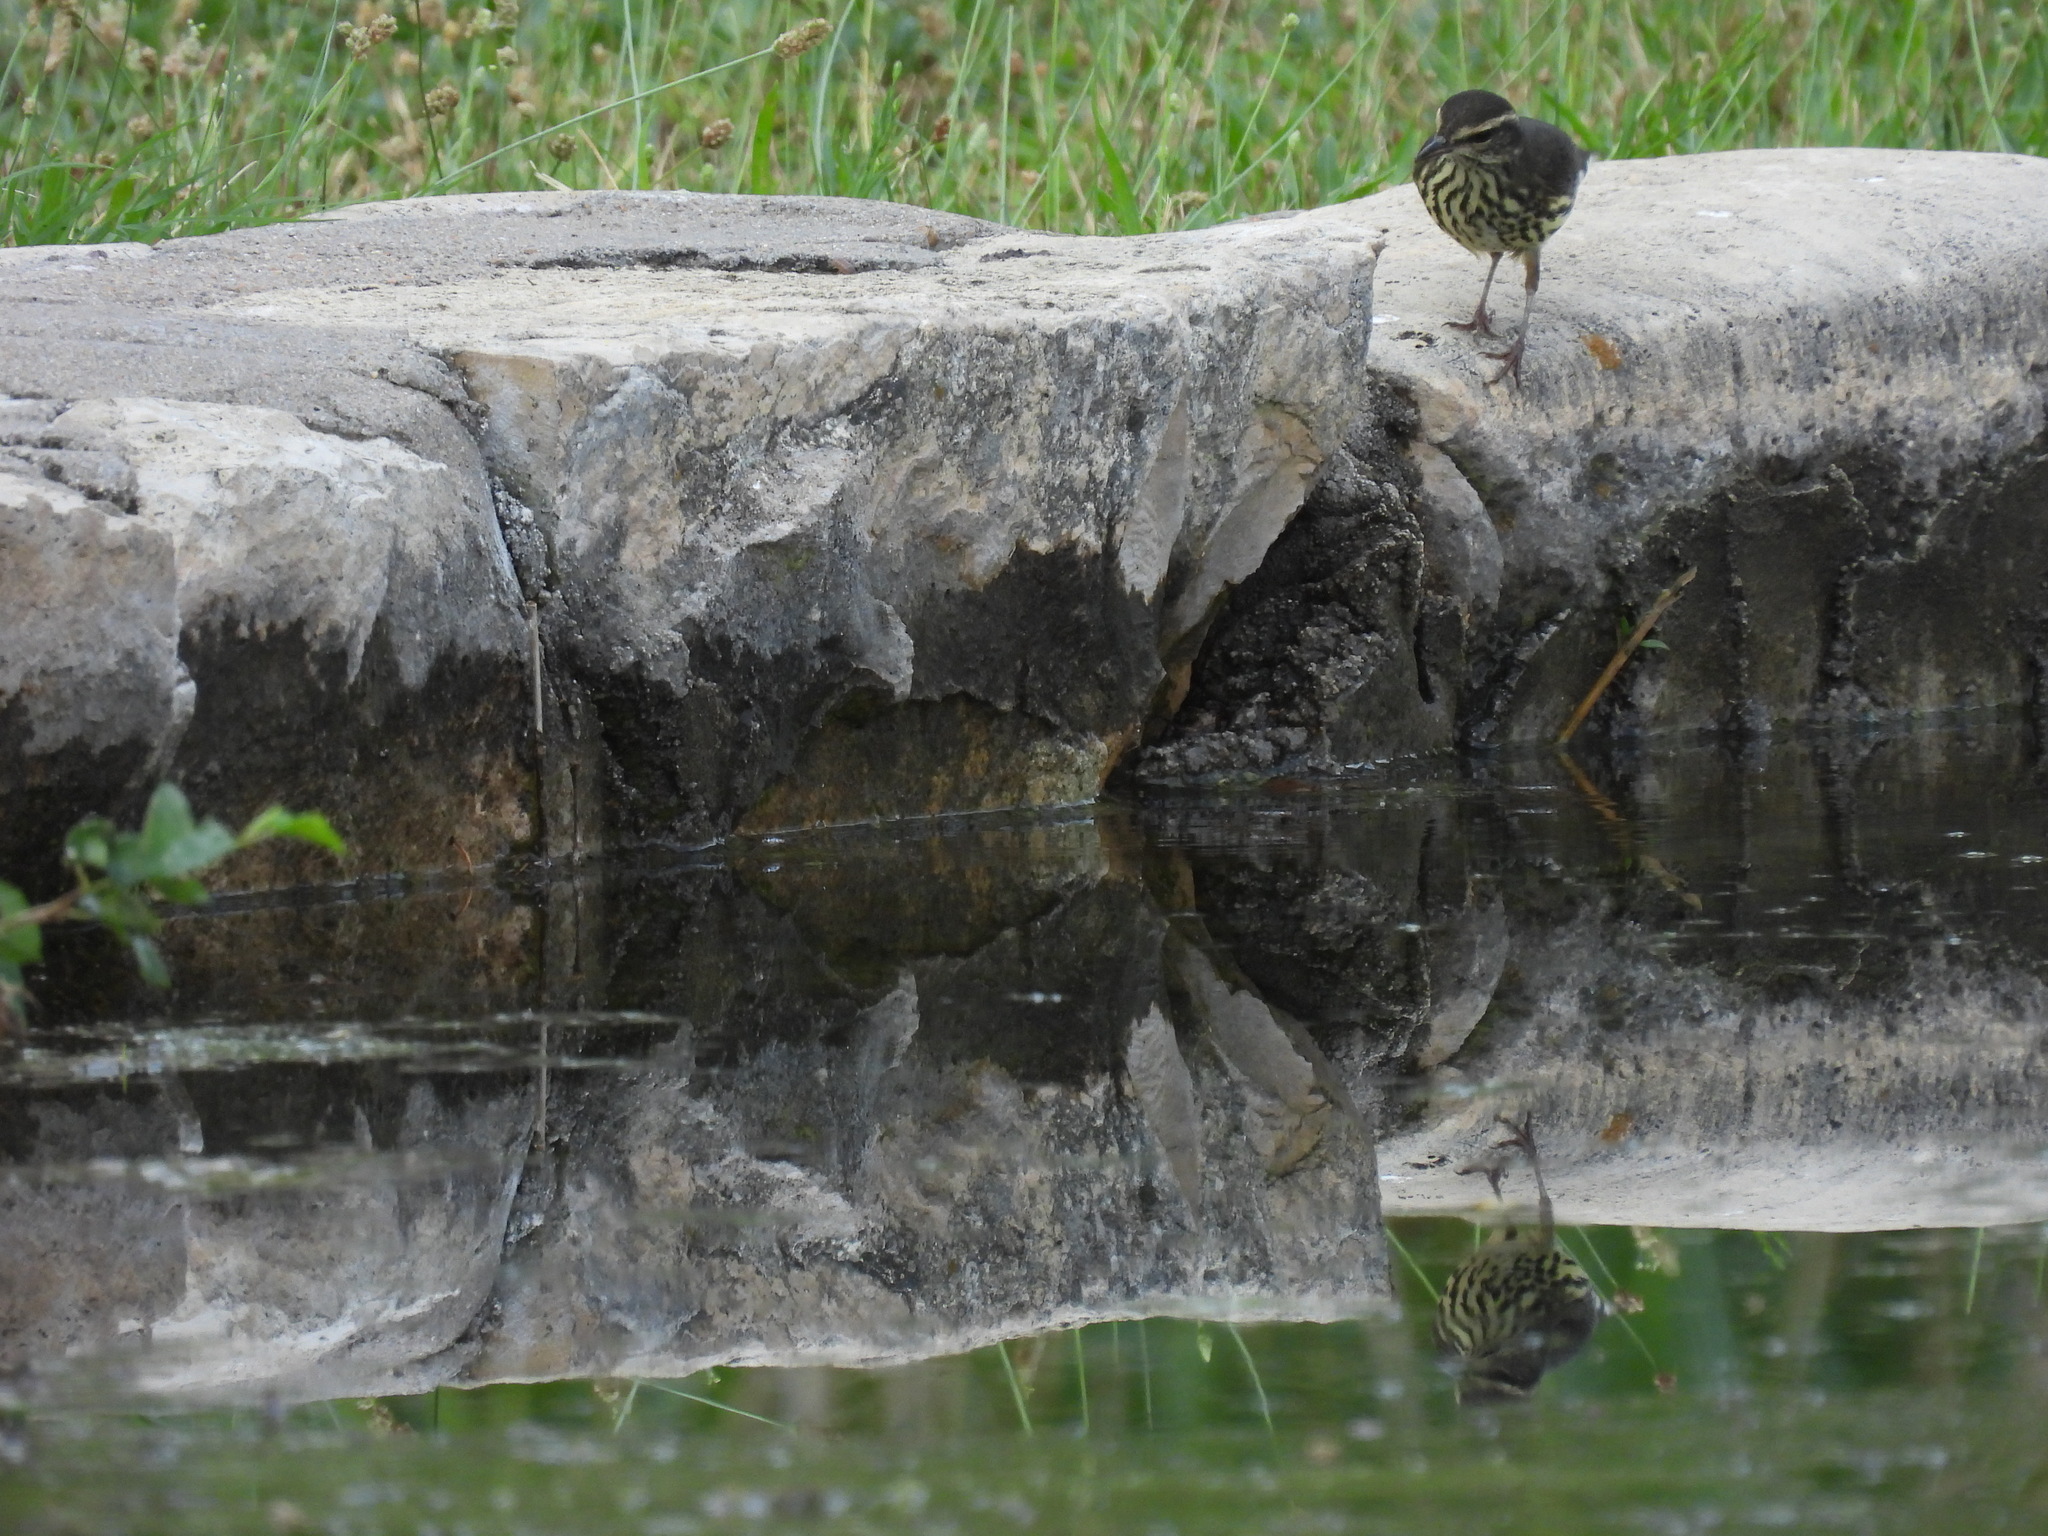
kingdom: Animalia
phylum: Chordata
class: Aves
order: Passeriformes
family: Parulidae
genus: Parkesia
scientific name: Parkesia noveboracensis
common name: Northern waterthrush
